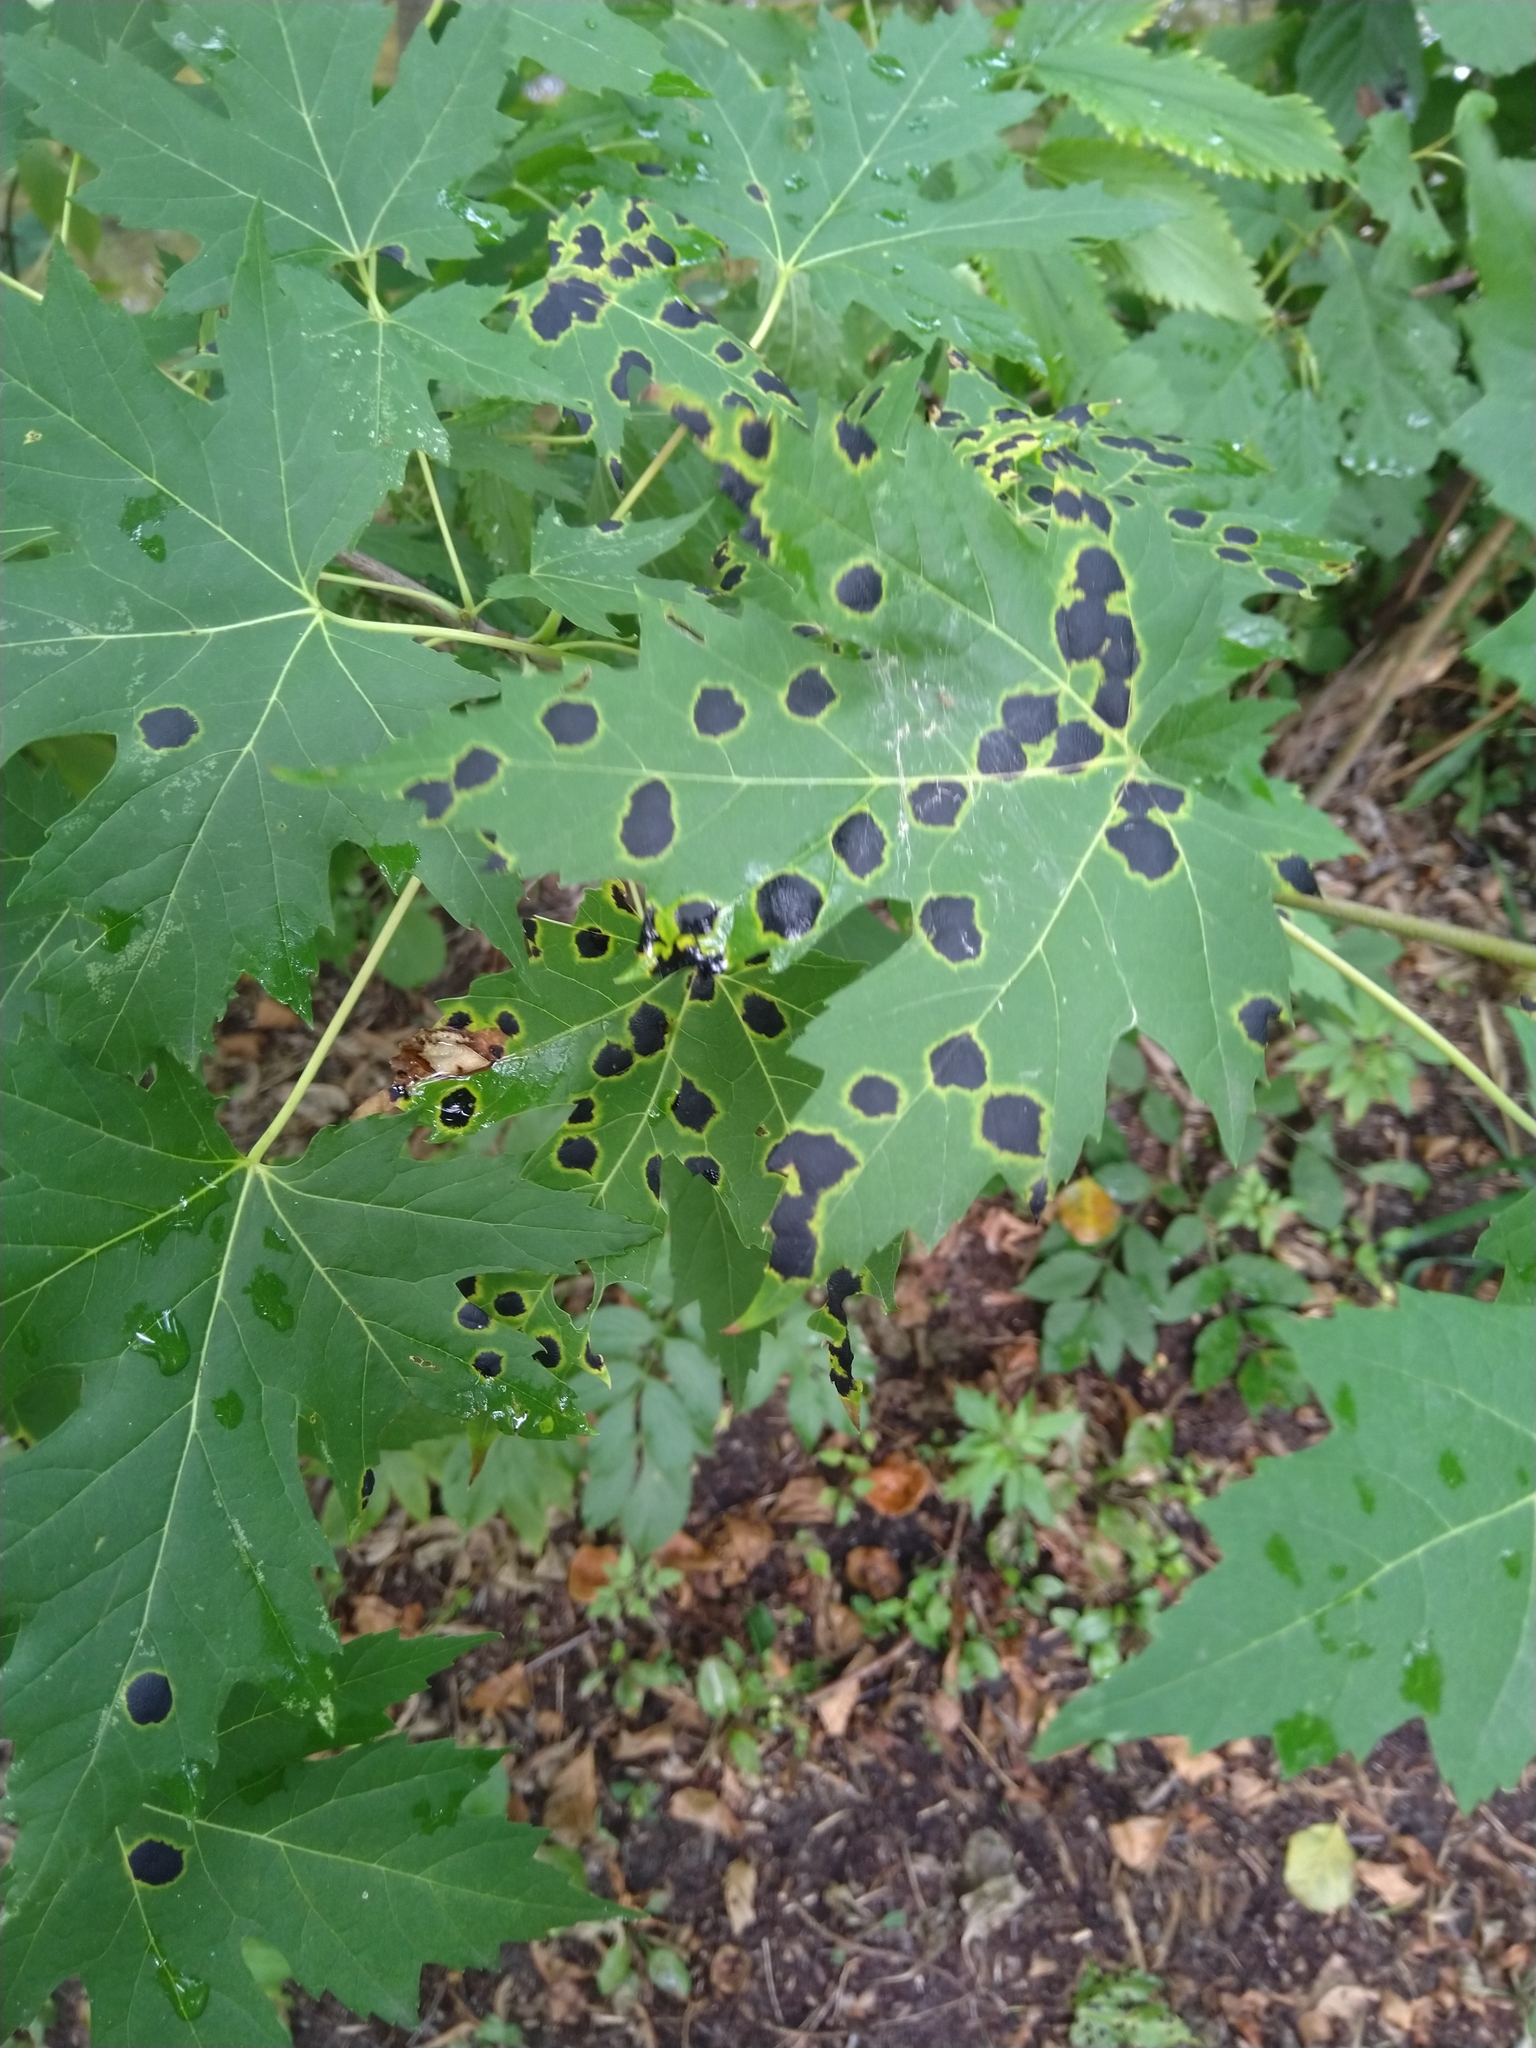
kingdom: Fungi
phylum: Ascomycota
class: Leotiomycetes
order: Rhytismatales
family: Rhytismataceae
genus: Rhytisma
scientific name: Rhytisma americanum
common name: American tar spot
